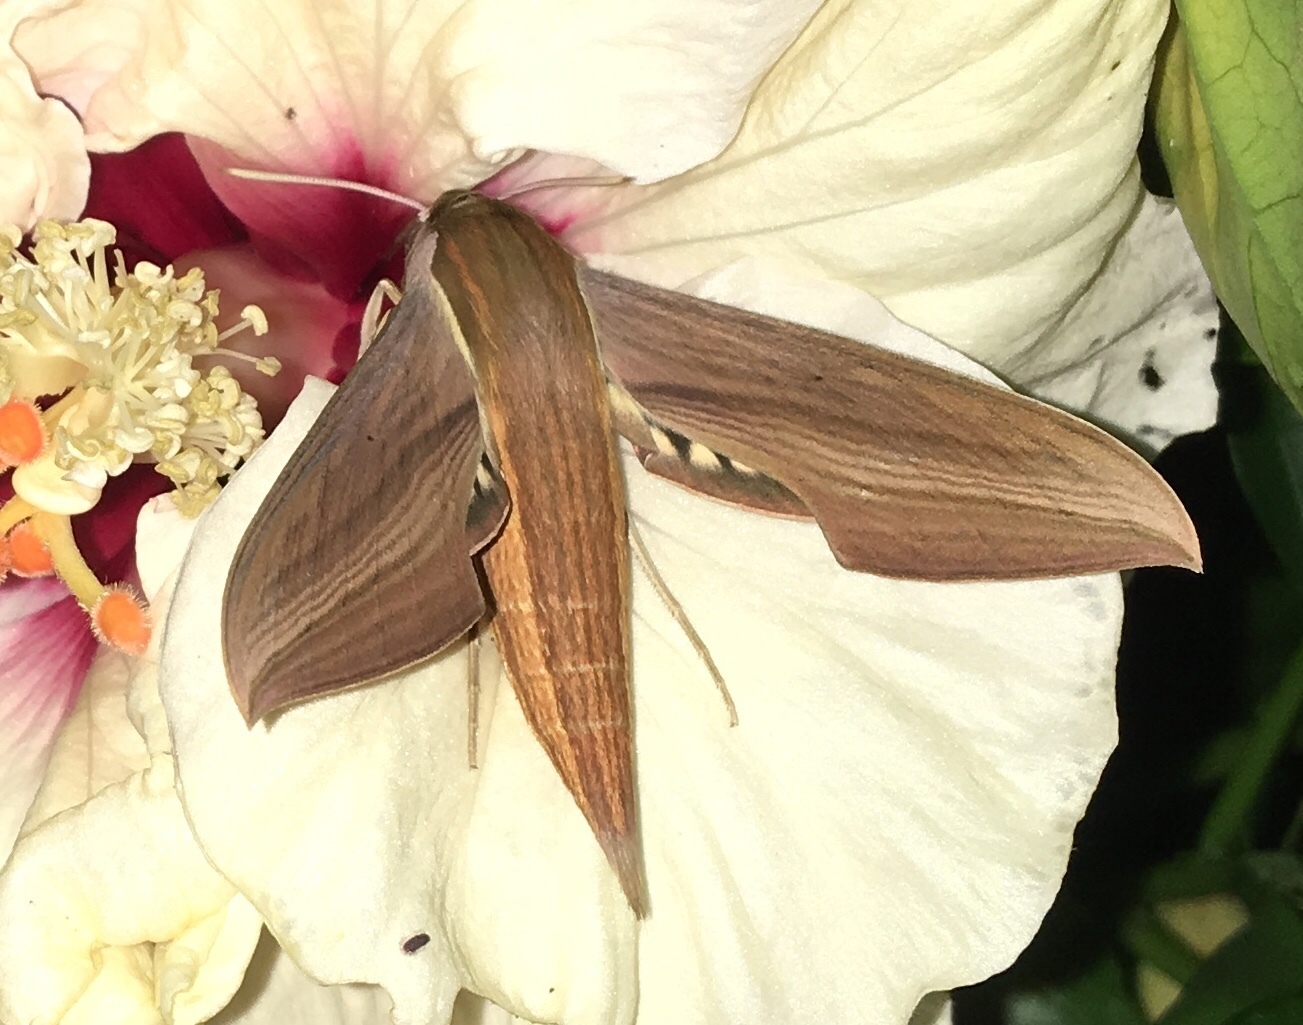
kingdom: Animalia
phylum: Arthropoda
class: Insecta
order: Lepidoptera
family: Sphingidae
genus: Xylophanes
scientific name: Xylophanes tersa
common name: Tersa sphinx
